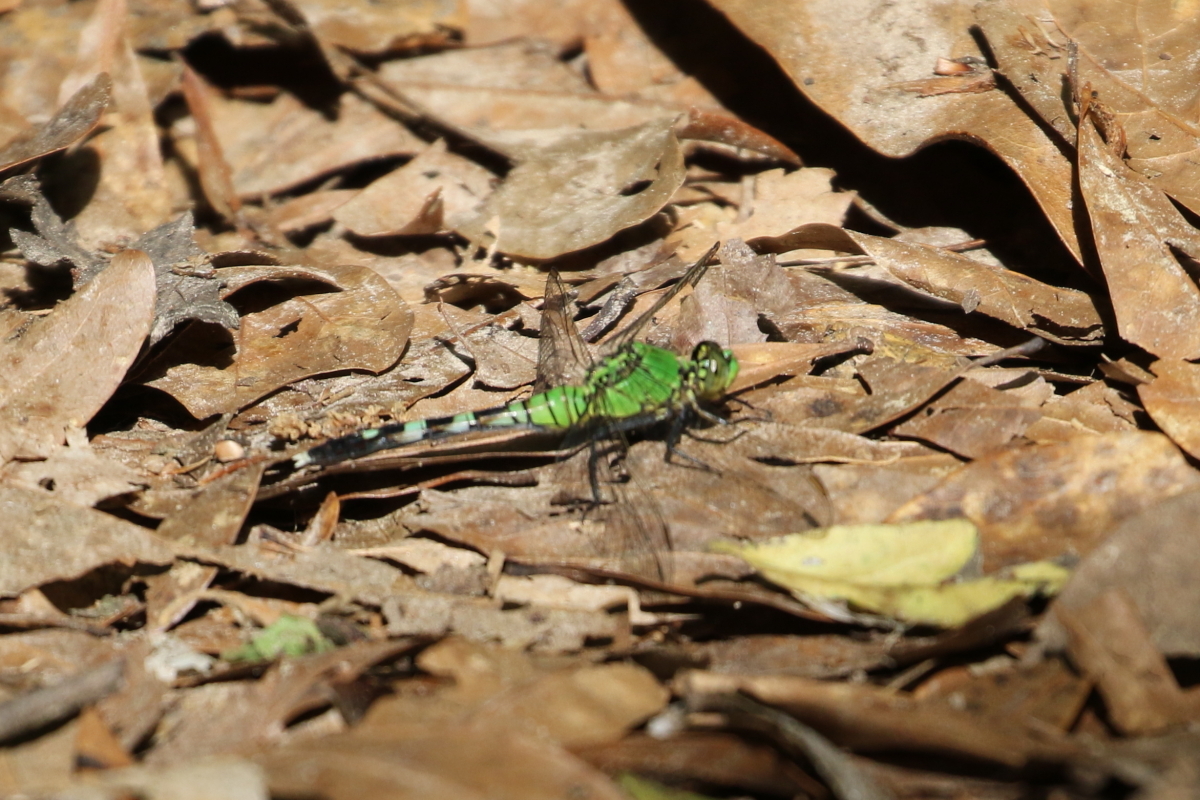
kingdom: Animalia
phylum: Arthropoda
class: Insecta
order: Odonata
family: Libellulidae
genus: Erythemis
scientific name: Erythemis simplicicollis
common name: Eastern pondhawk
